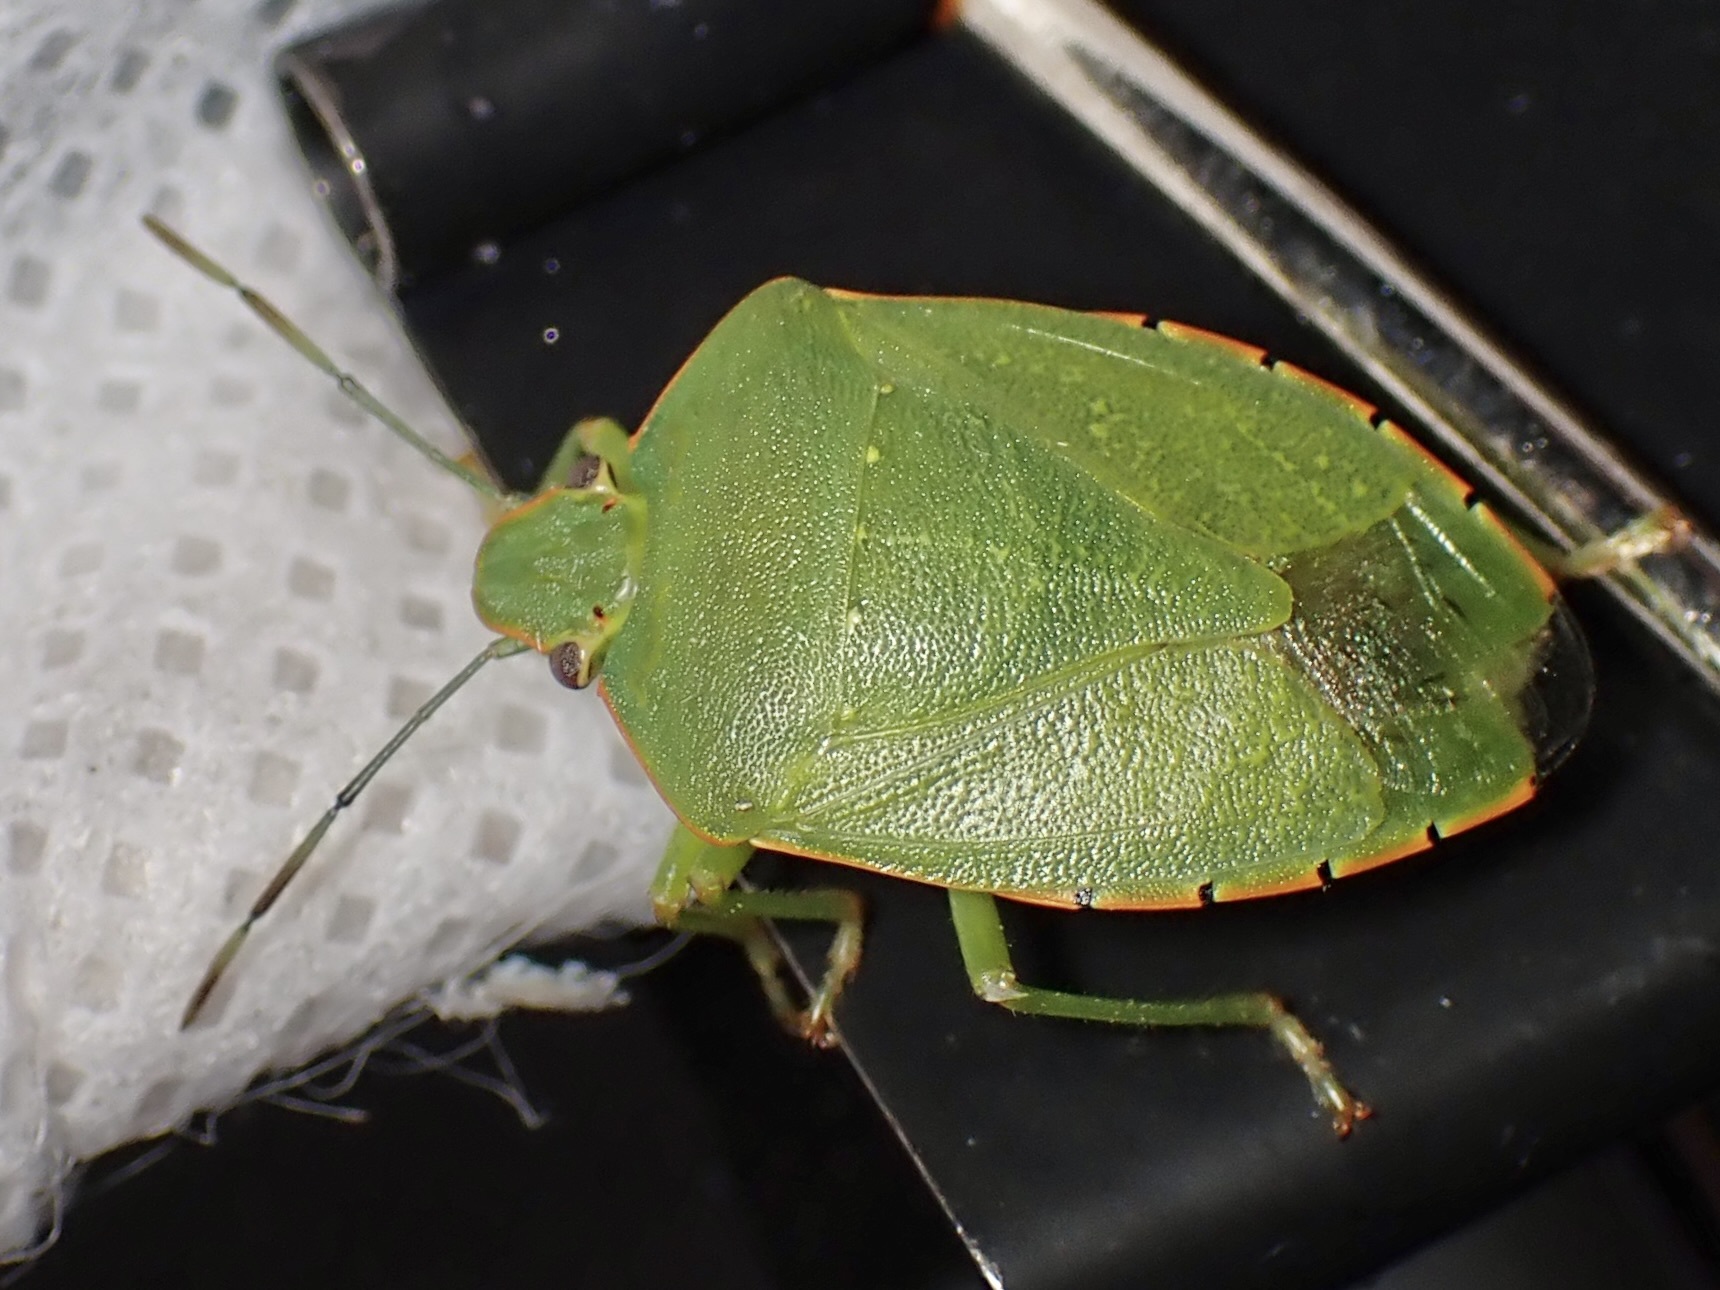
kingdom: Animalia
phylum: Arthropoda
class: Insecta
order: Hemiptera
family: Pentatomidae
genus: Chinavia
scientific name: Chinavia hilaris
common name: Green stink bug
